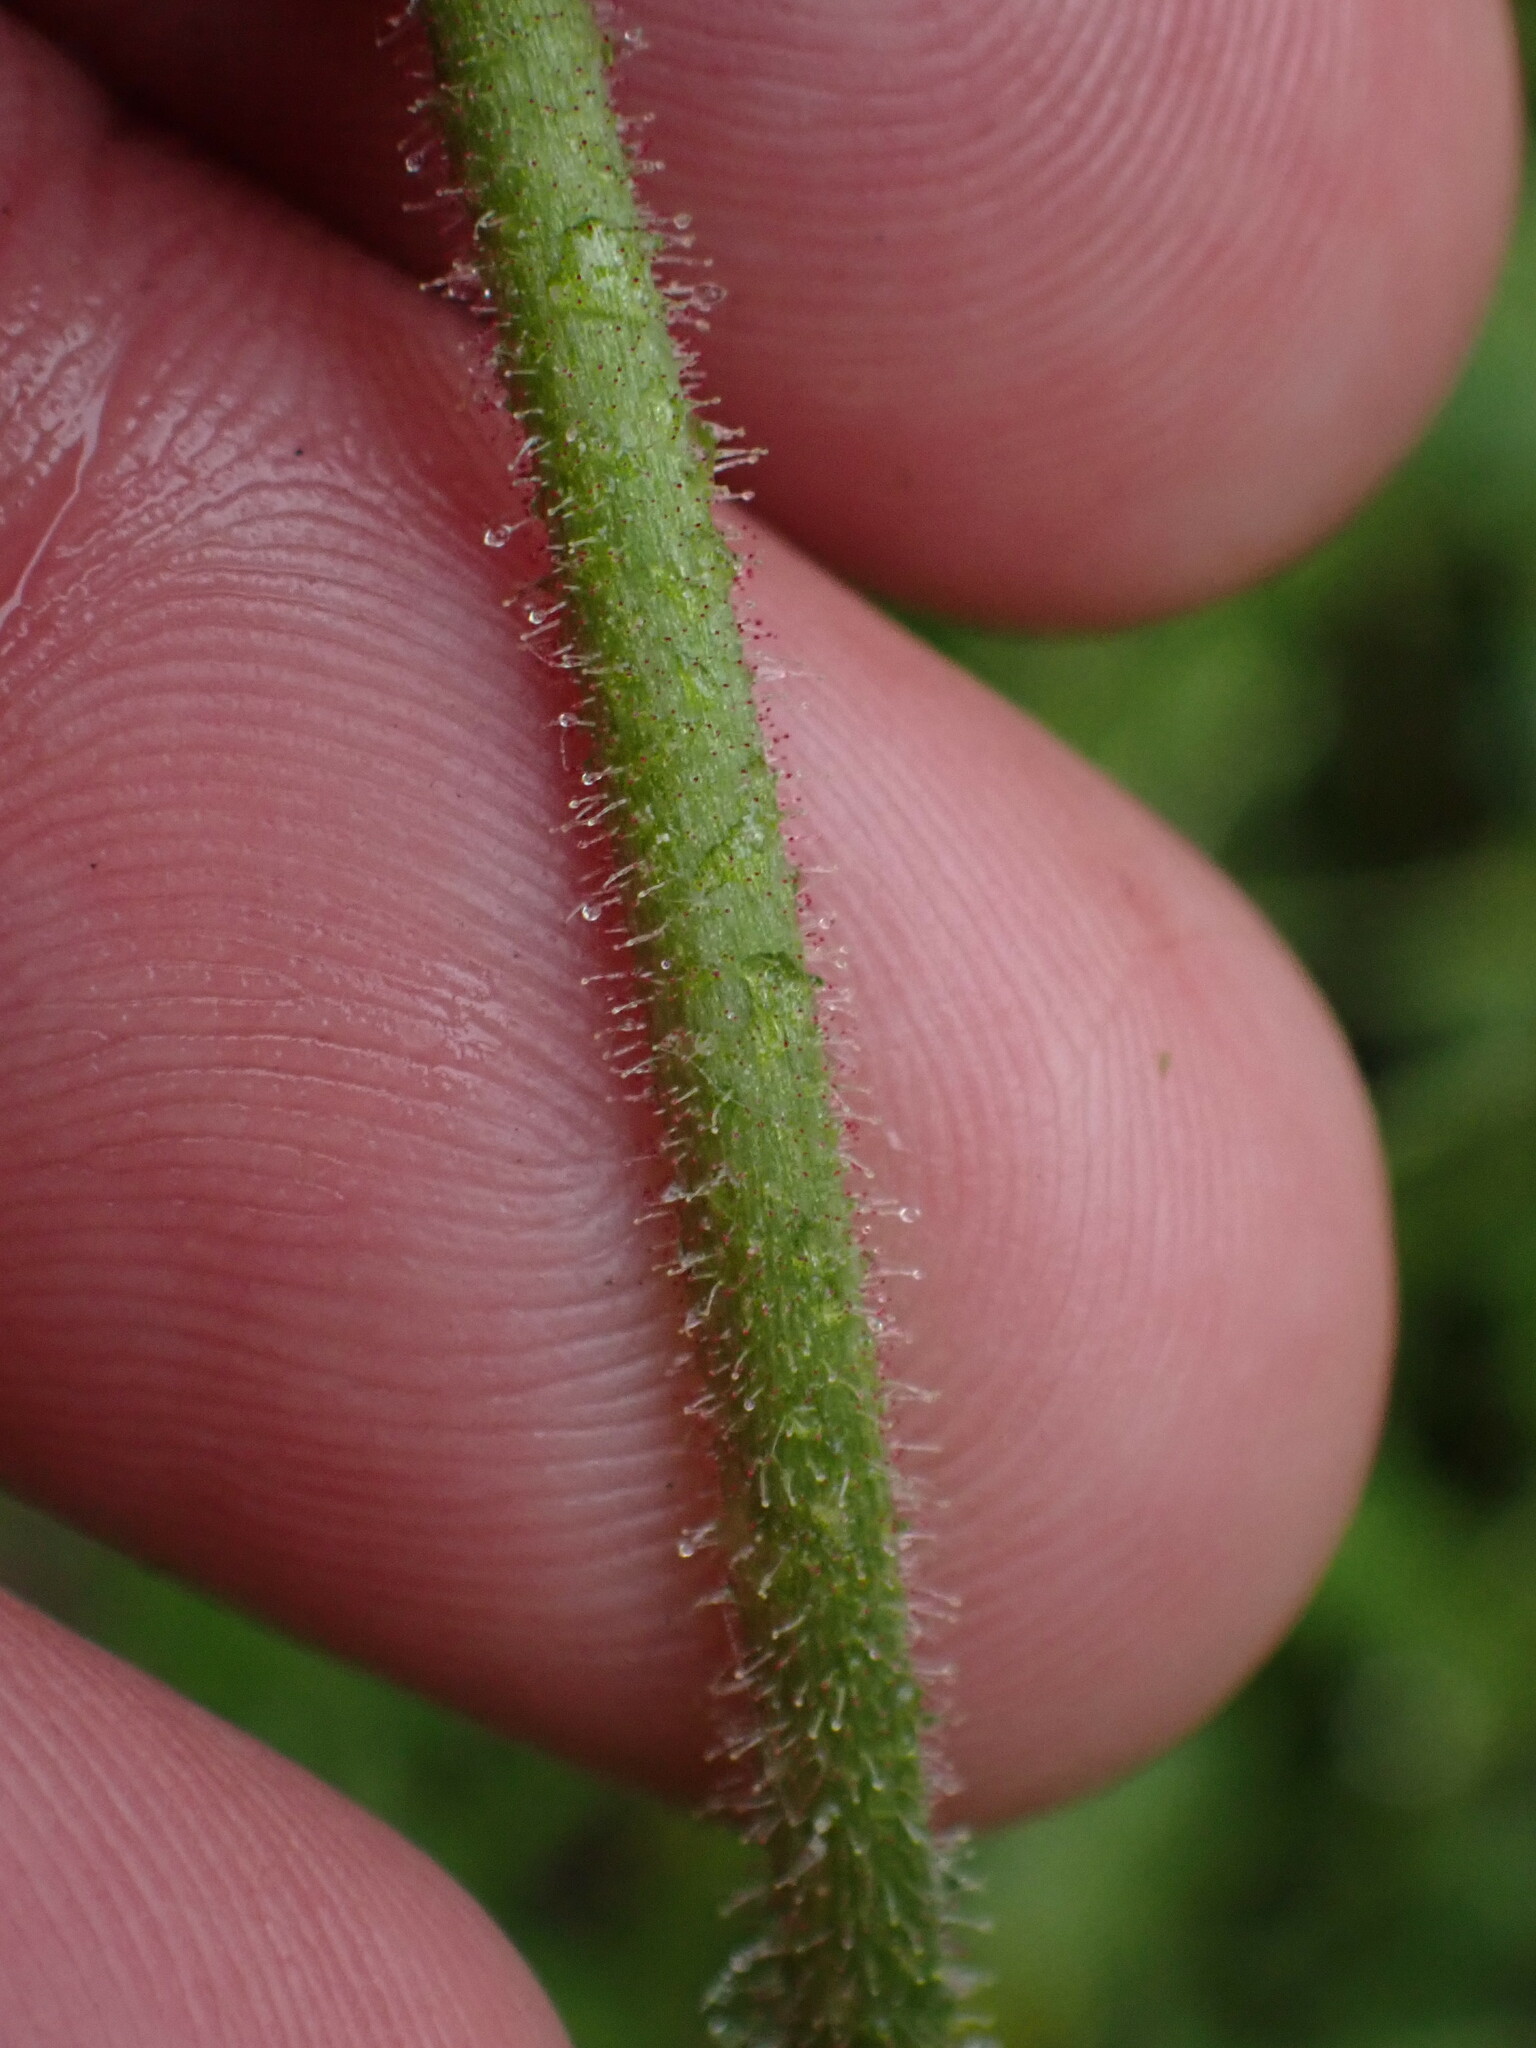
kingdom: Plantae
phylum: Tracheophyta
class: Magnoliopsida
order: Saxifragales
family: Saxifragaceae
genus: Micranthes
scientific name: Micranthes nidifica
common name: Peak saxifrage
